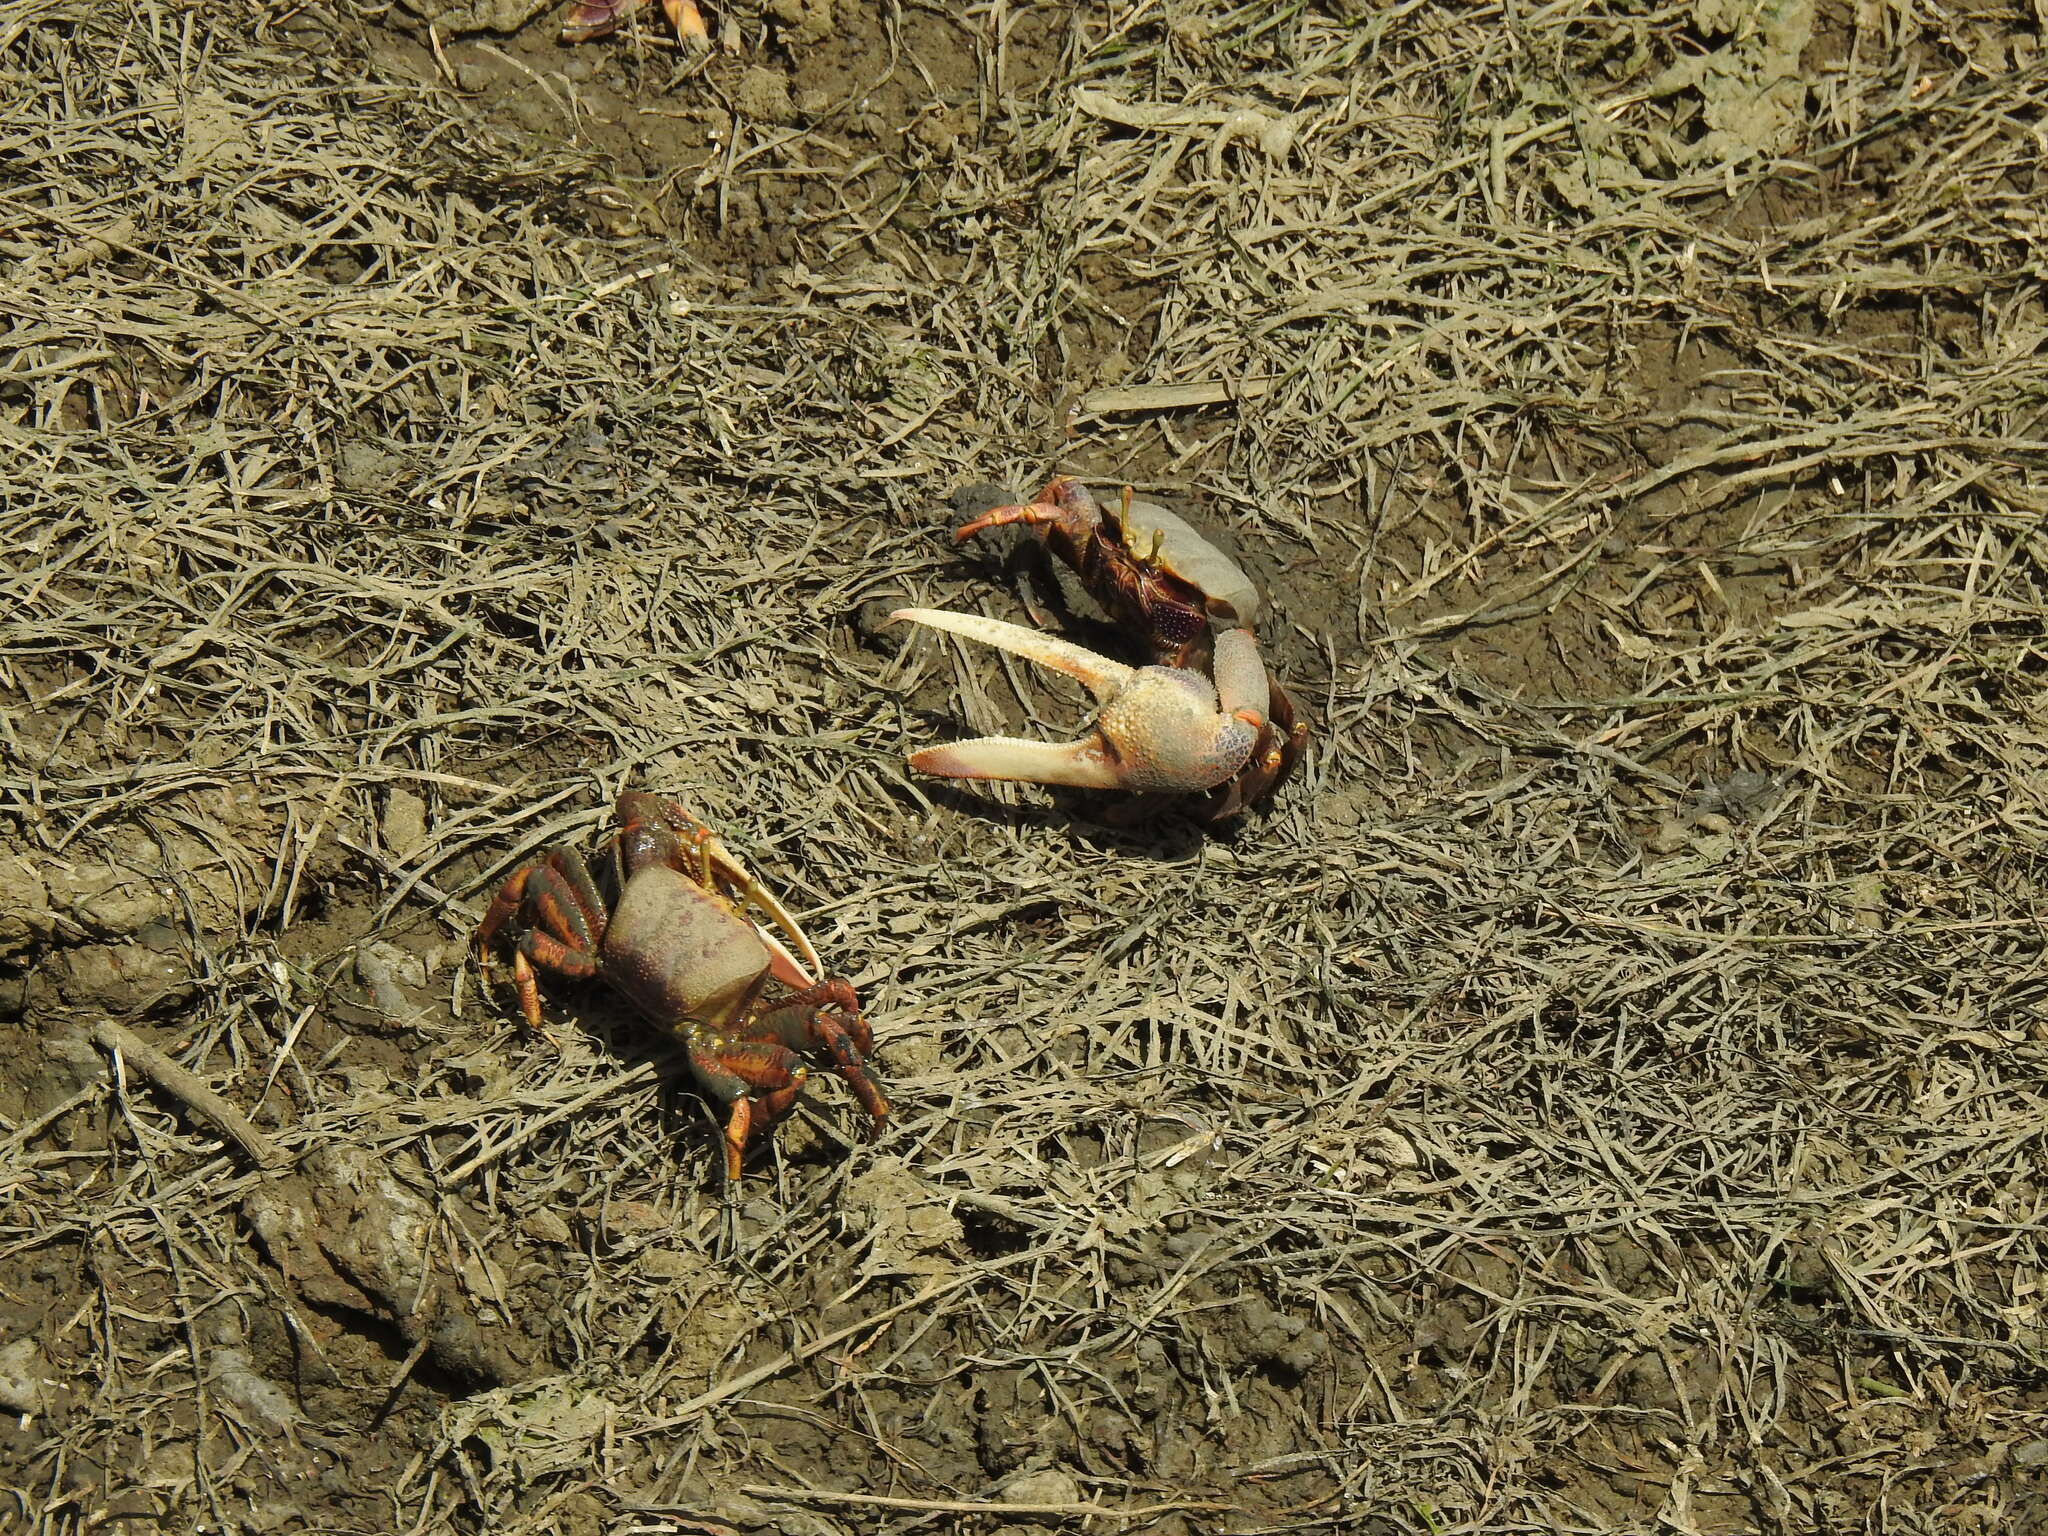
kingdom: Animalia
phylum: Arthropoda
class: Malacostraca
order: Decapoda
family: Ocypodidae
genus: Afruca
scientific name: Afruca tangeri
